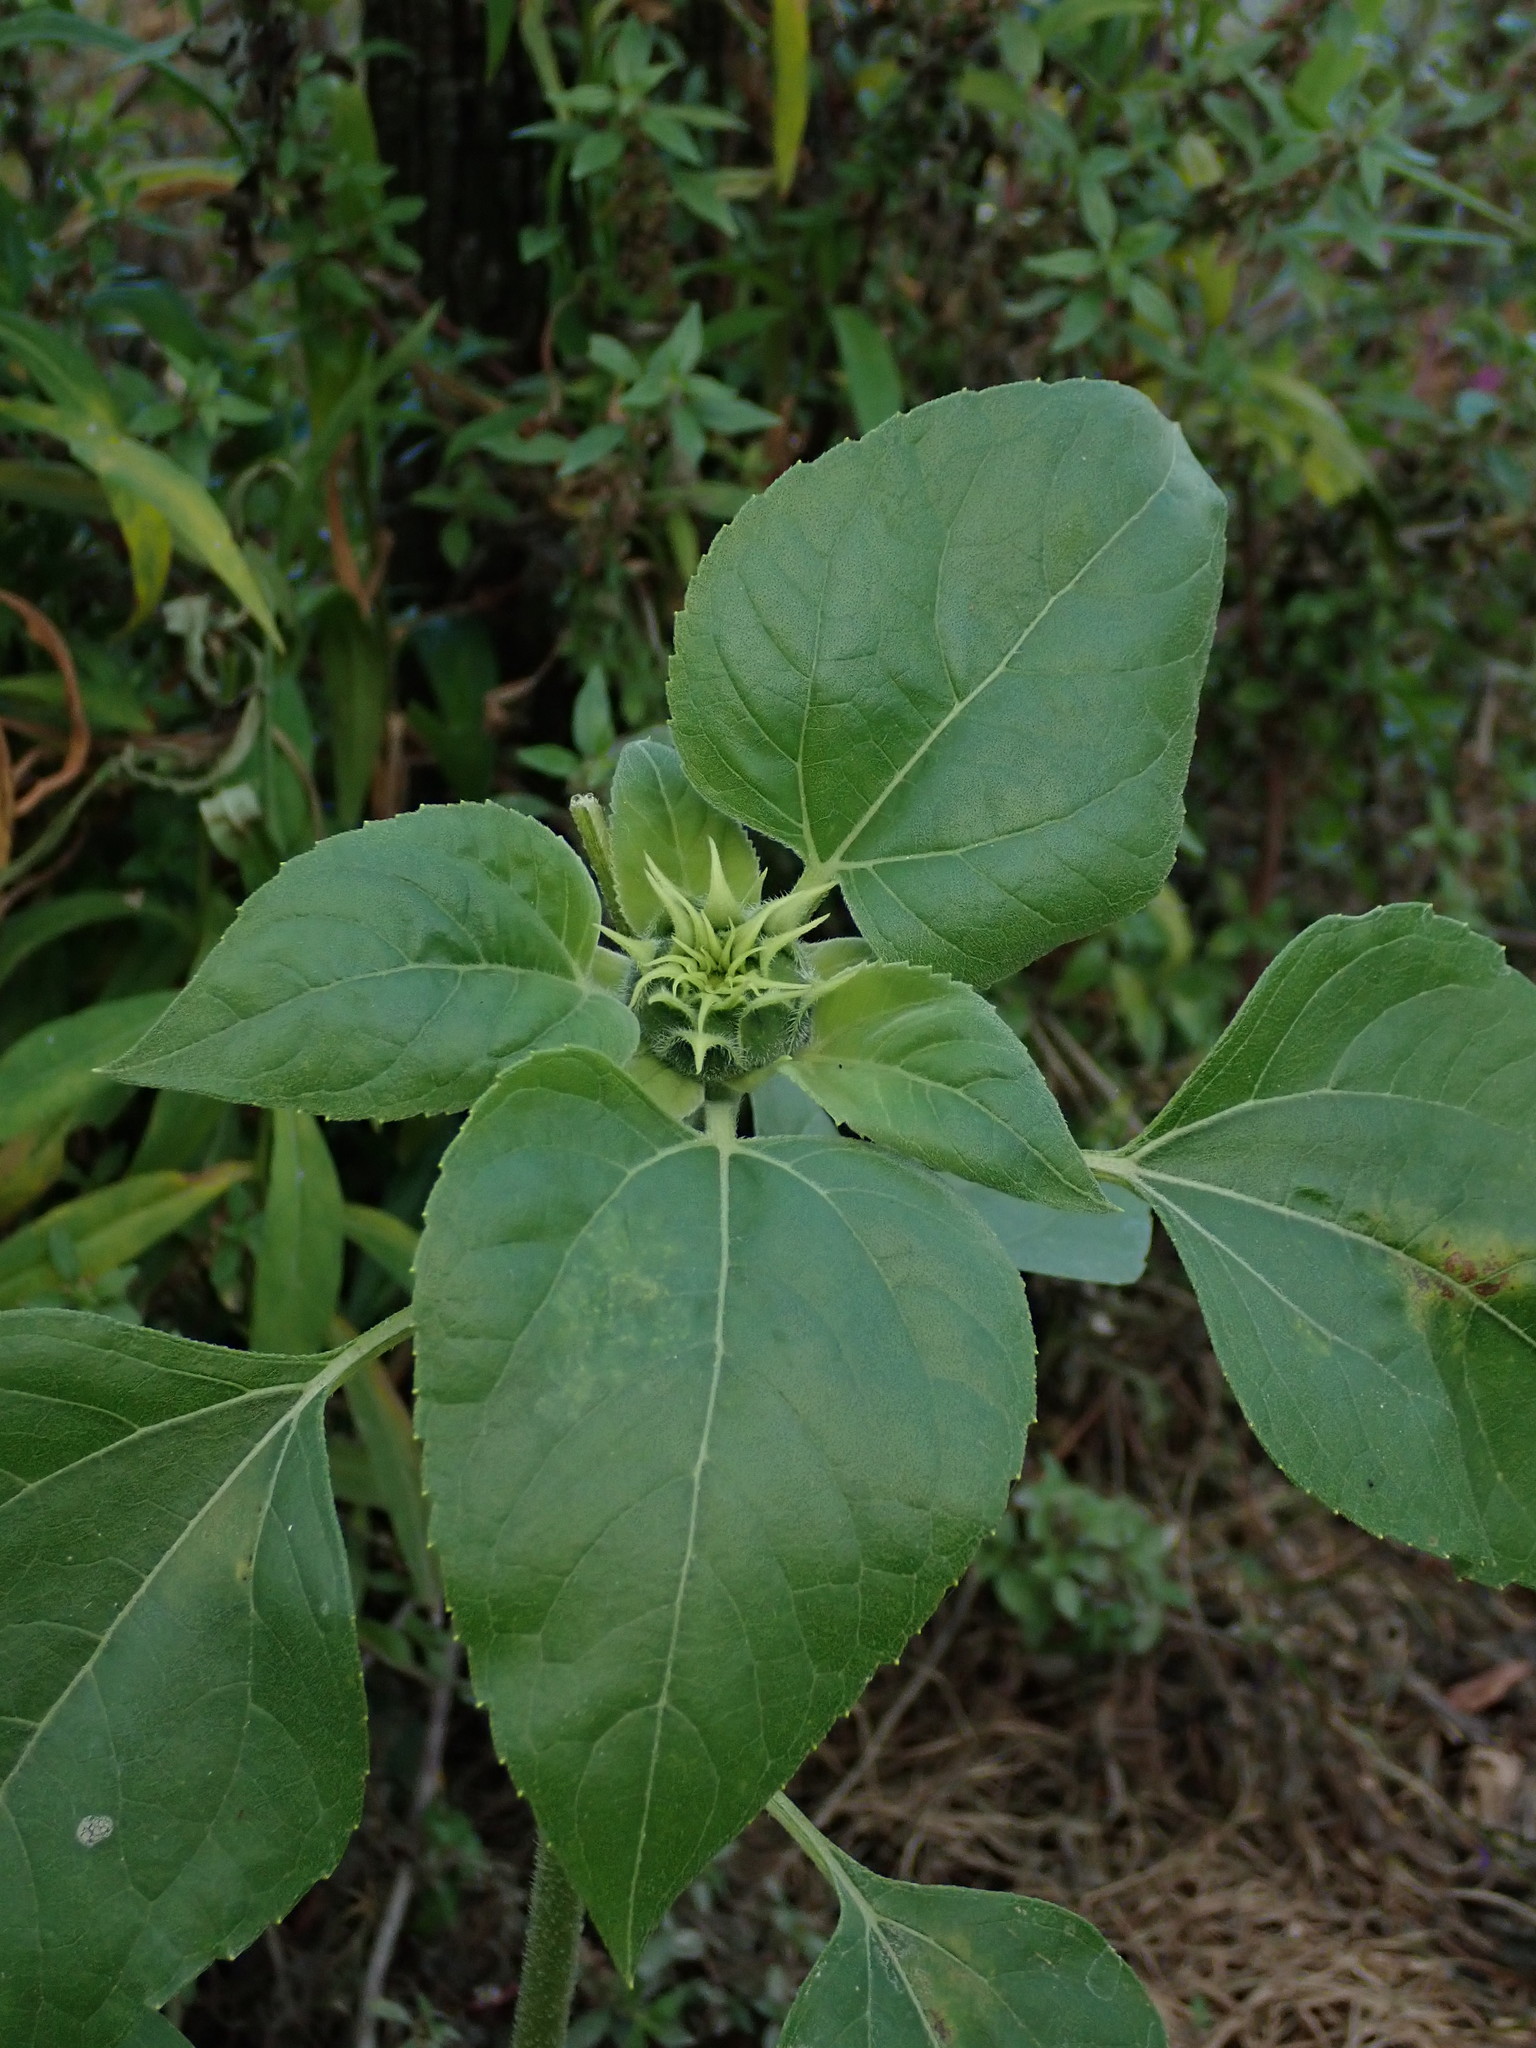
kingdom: Plantae
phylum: Tracheophyta
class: Magnoliopsida
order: Asterales
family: Asteraceae
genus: Helianthus
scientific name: Helianthus annuus
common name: Sunflower
